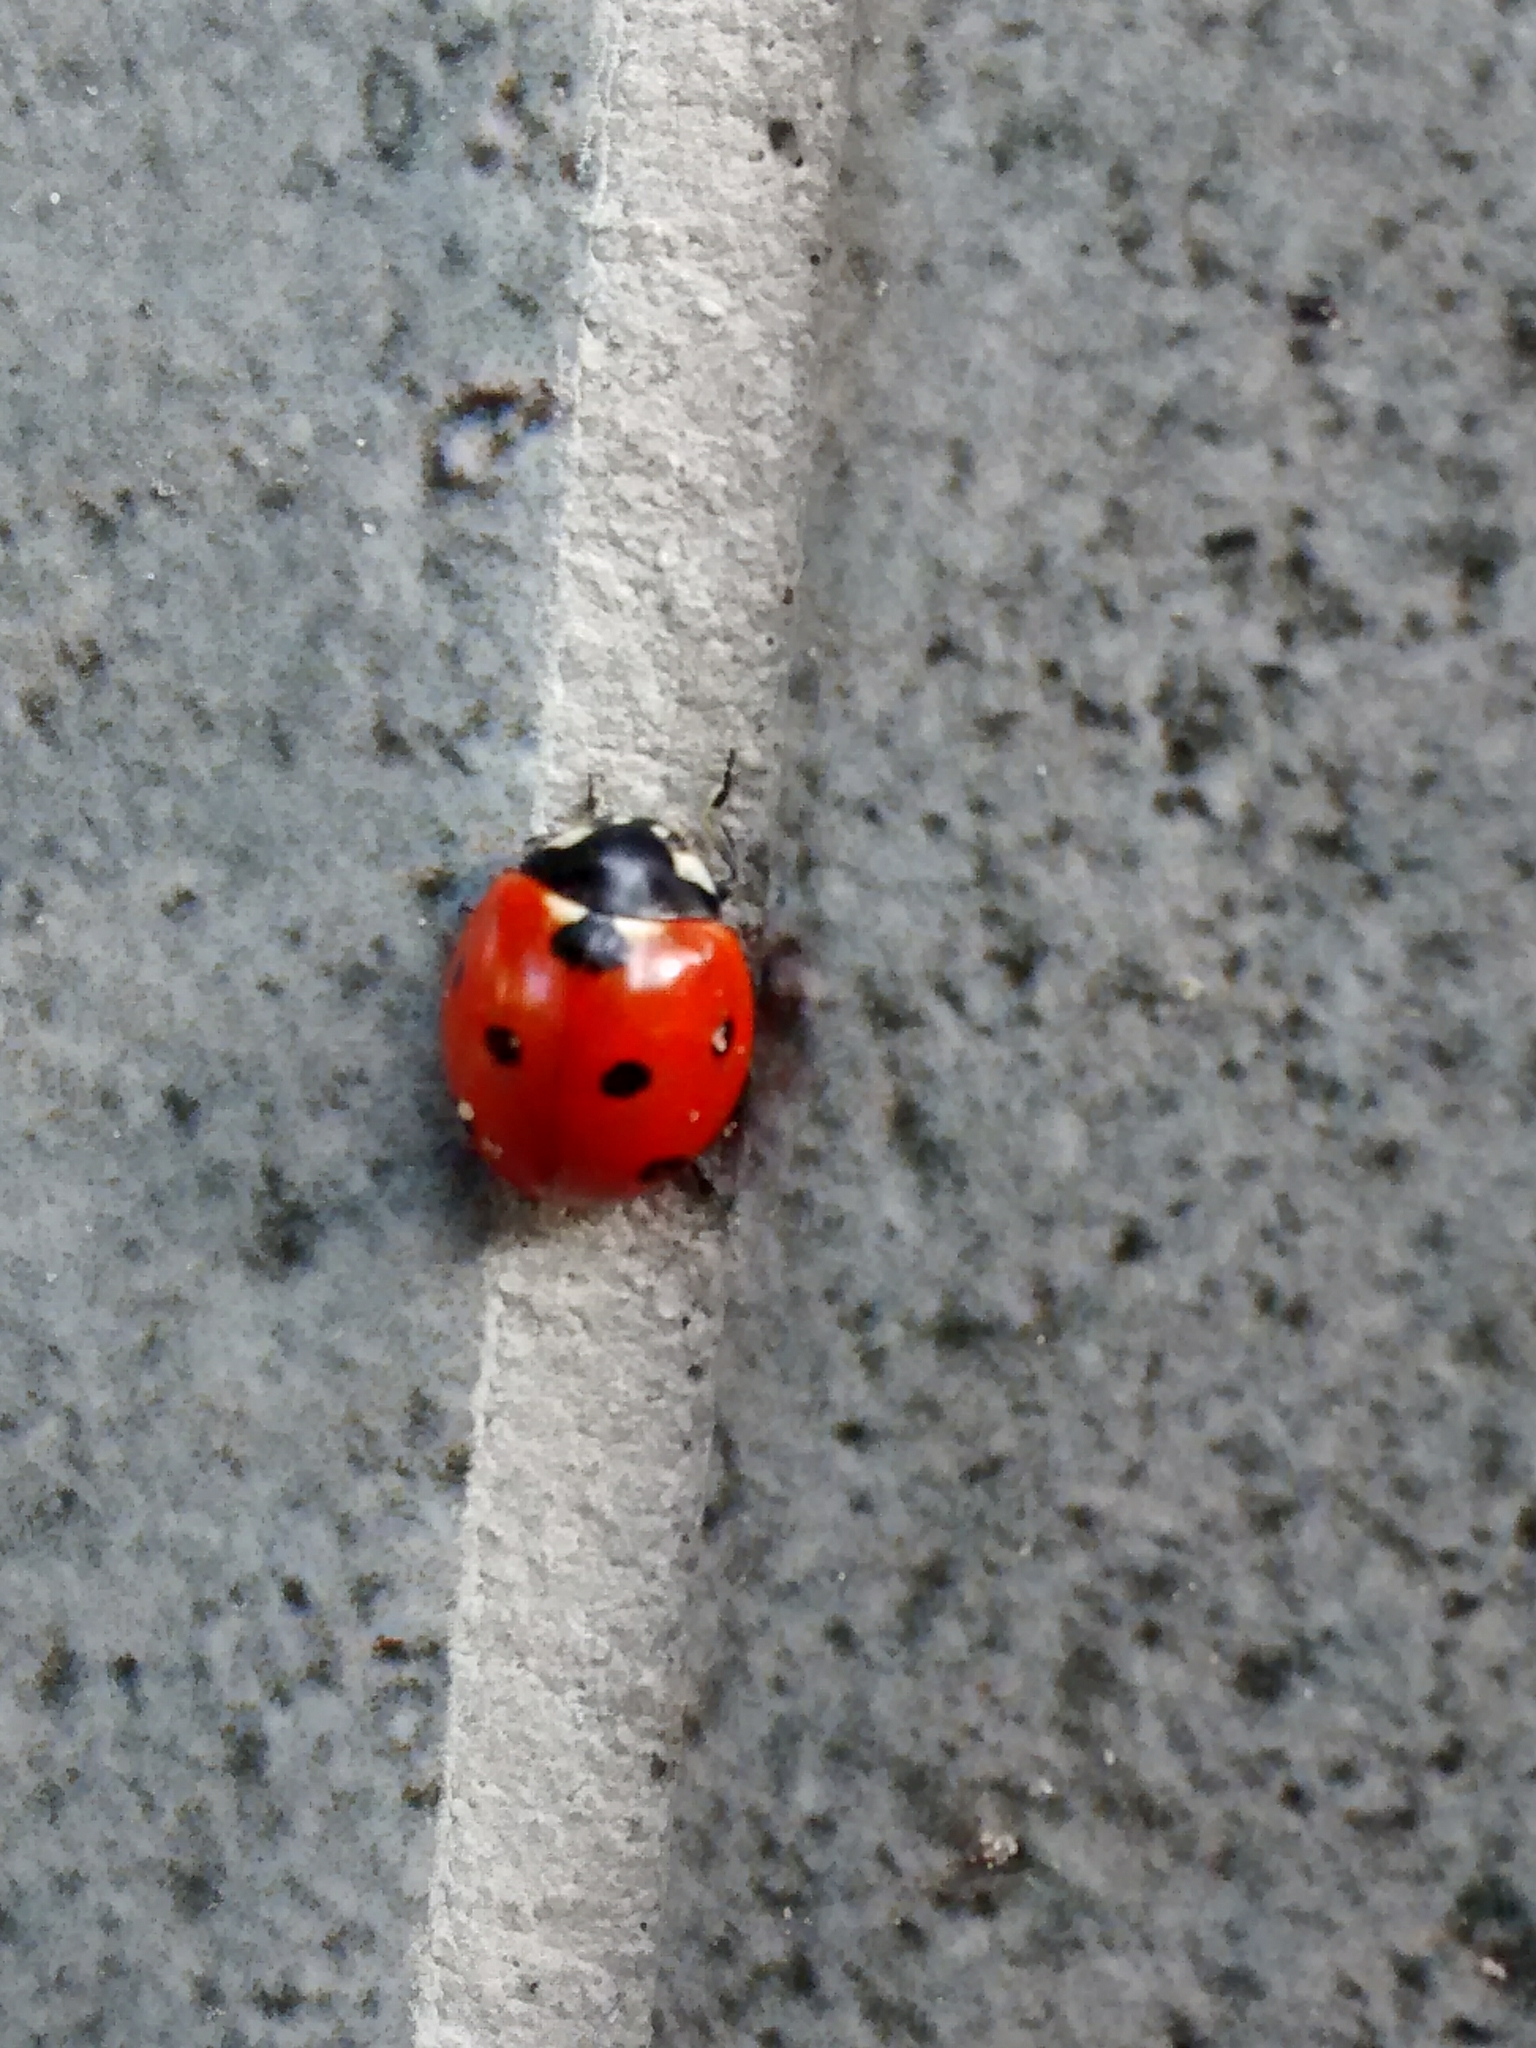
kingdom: Animalia
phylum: Arthropoda
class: Insecta
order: Coleoptera
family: Coccinellidae
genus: Coccinella
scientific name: Coccinella septempunctata
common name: Sevenspotted lady beetle
